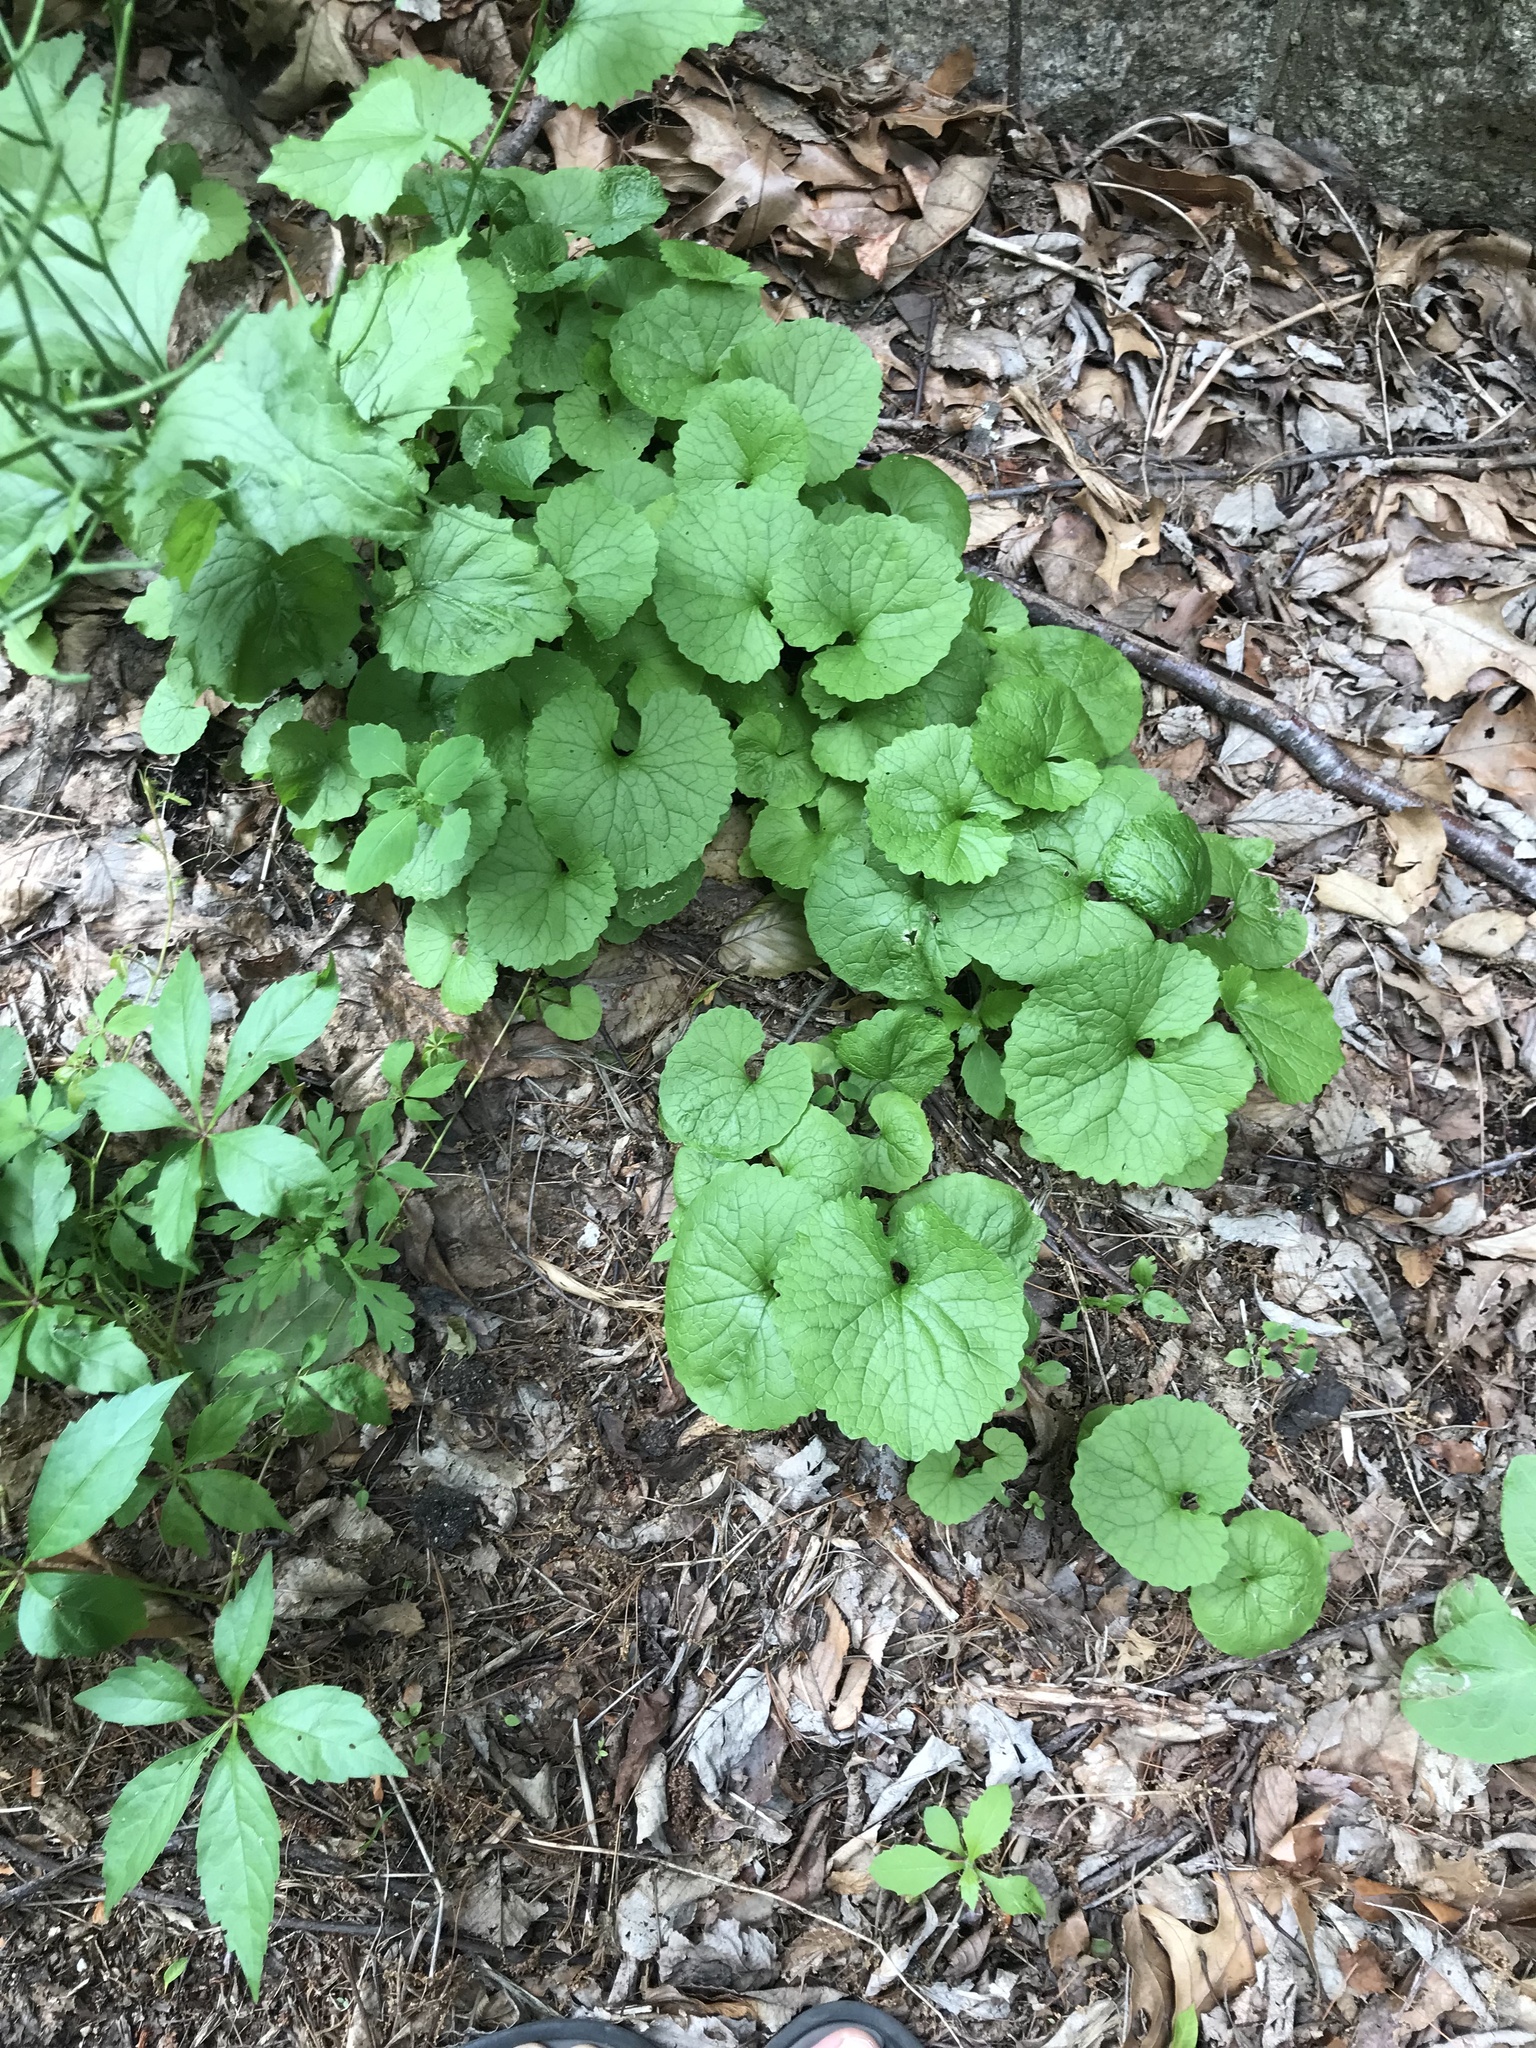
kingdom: Plantae
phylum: Tracheophyta
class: Magnoliopsida
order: Brassicales
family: Brassicaceae
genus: Alliaria
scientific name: Alliaria petiolata
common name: Garlic mustard
